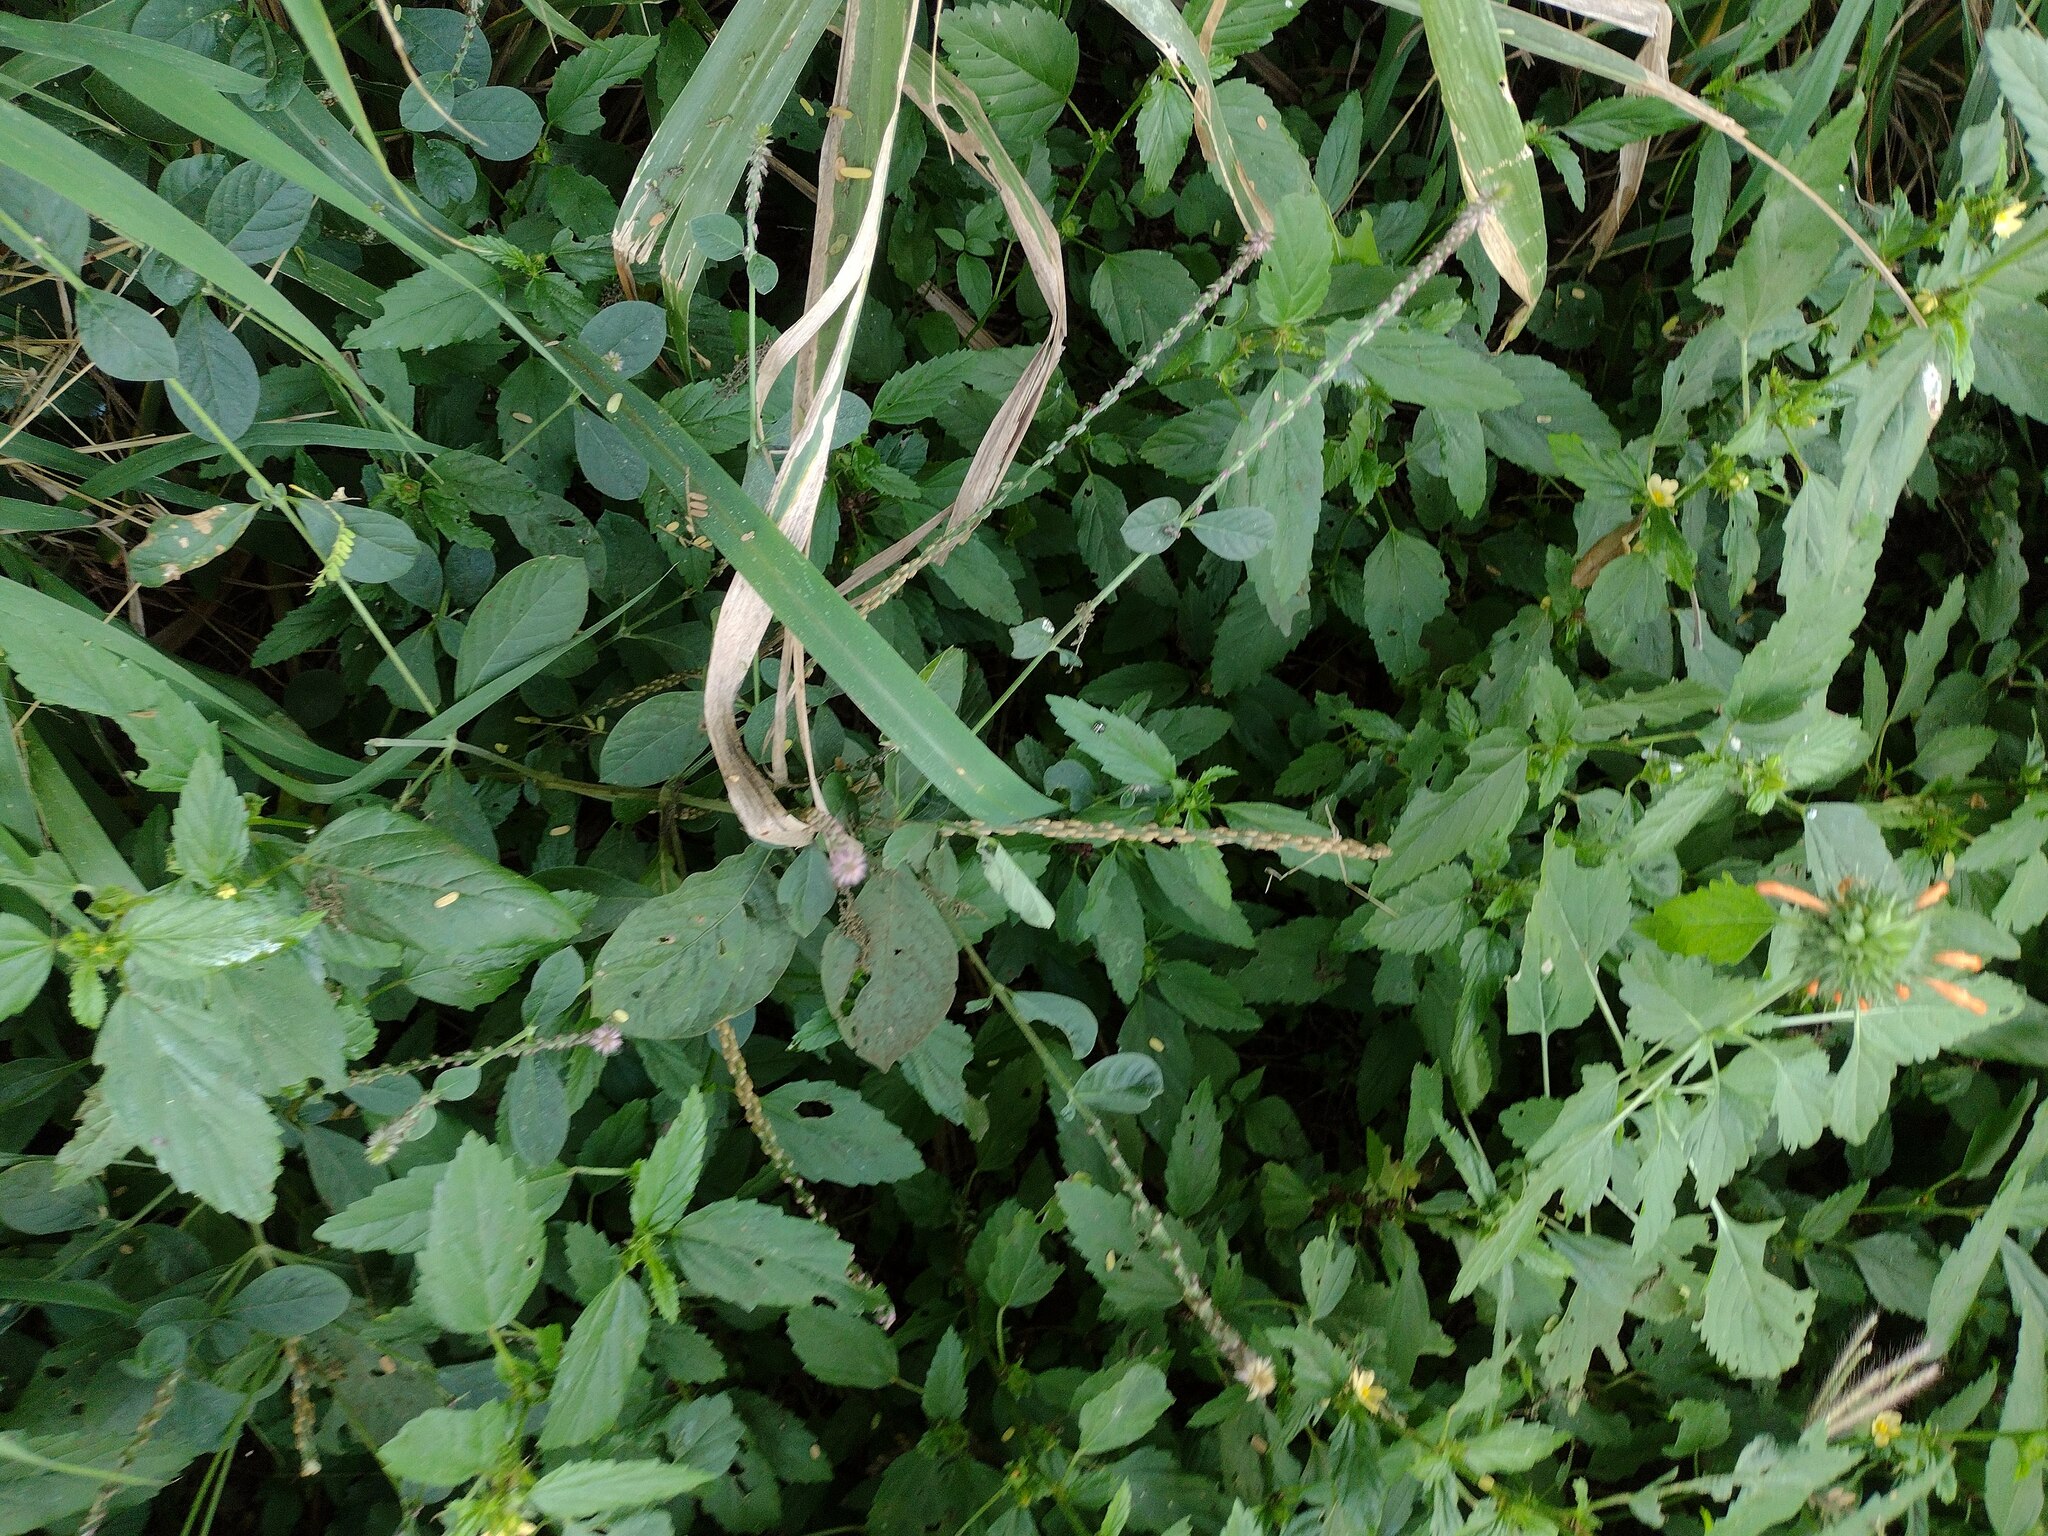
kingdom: Plantae
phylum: Tracheophyta
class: Magnoliopsida
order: Caryophyllales
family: Amaranthaceae
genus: Achyranthes
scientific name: Achyranthes aspera
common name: Devil's horsewhip
